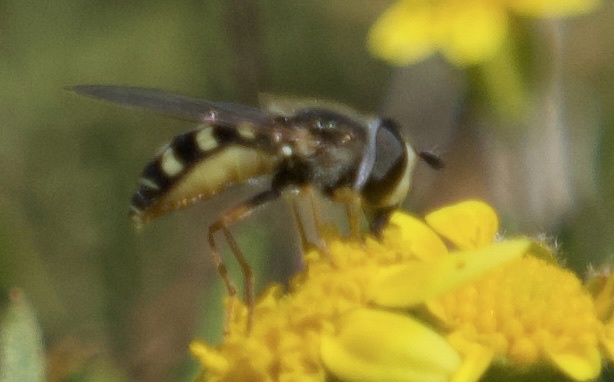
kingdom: Animalia
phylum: Arthropoda
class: Insecta
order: Diptera
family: Syrphidae
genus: Eupeodes
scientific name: Eupeodes volucris
